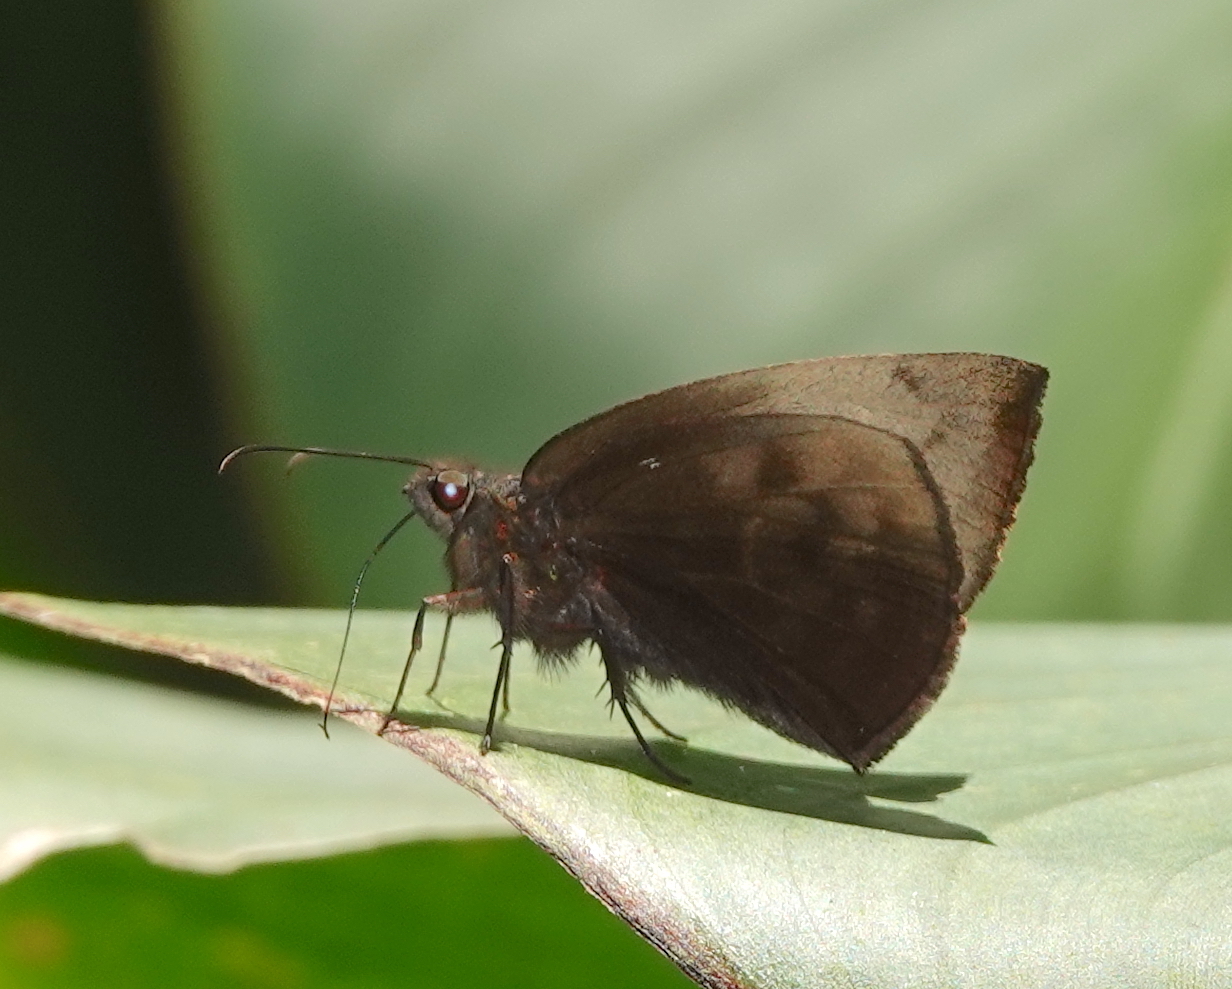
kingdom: Animalia
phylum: Arthropoda
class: Insecta
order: Lepidoptera
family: Hesperiidae
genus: Achlyodes
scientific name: Achlyodes pallida
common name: Pale sicklewing
